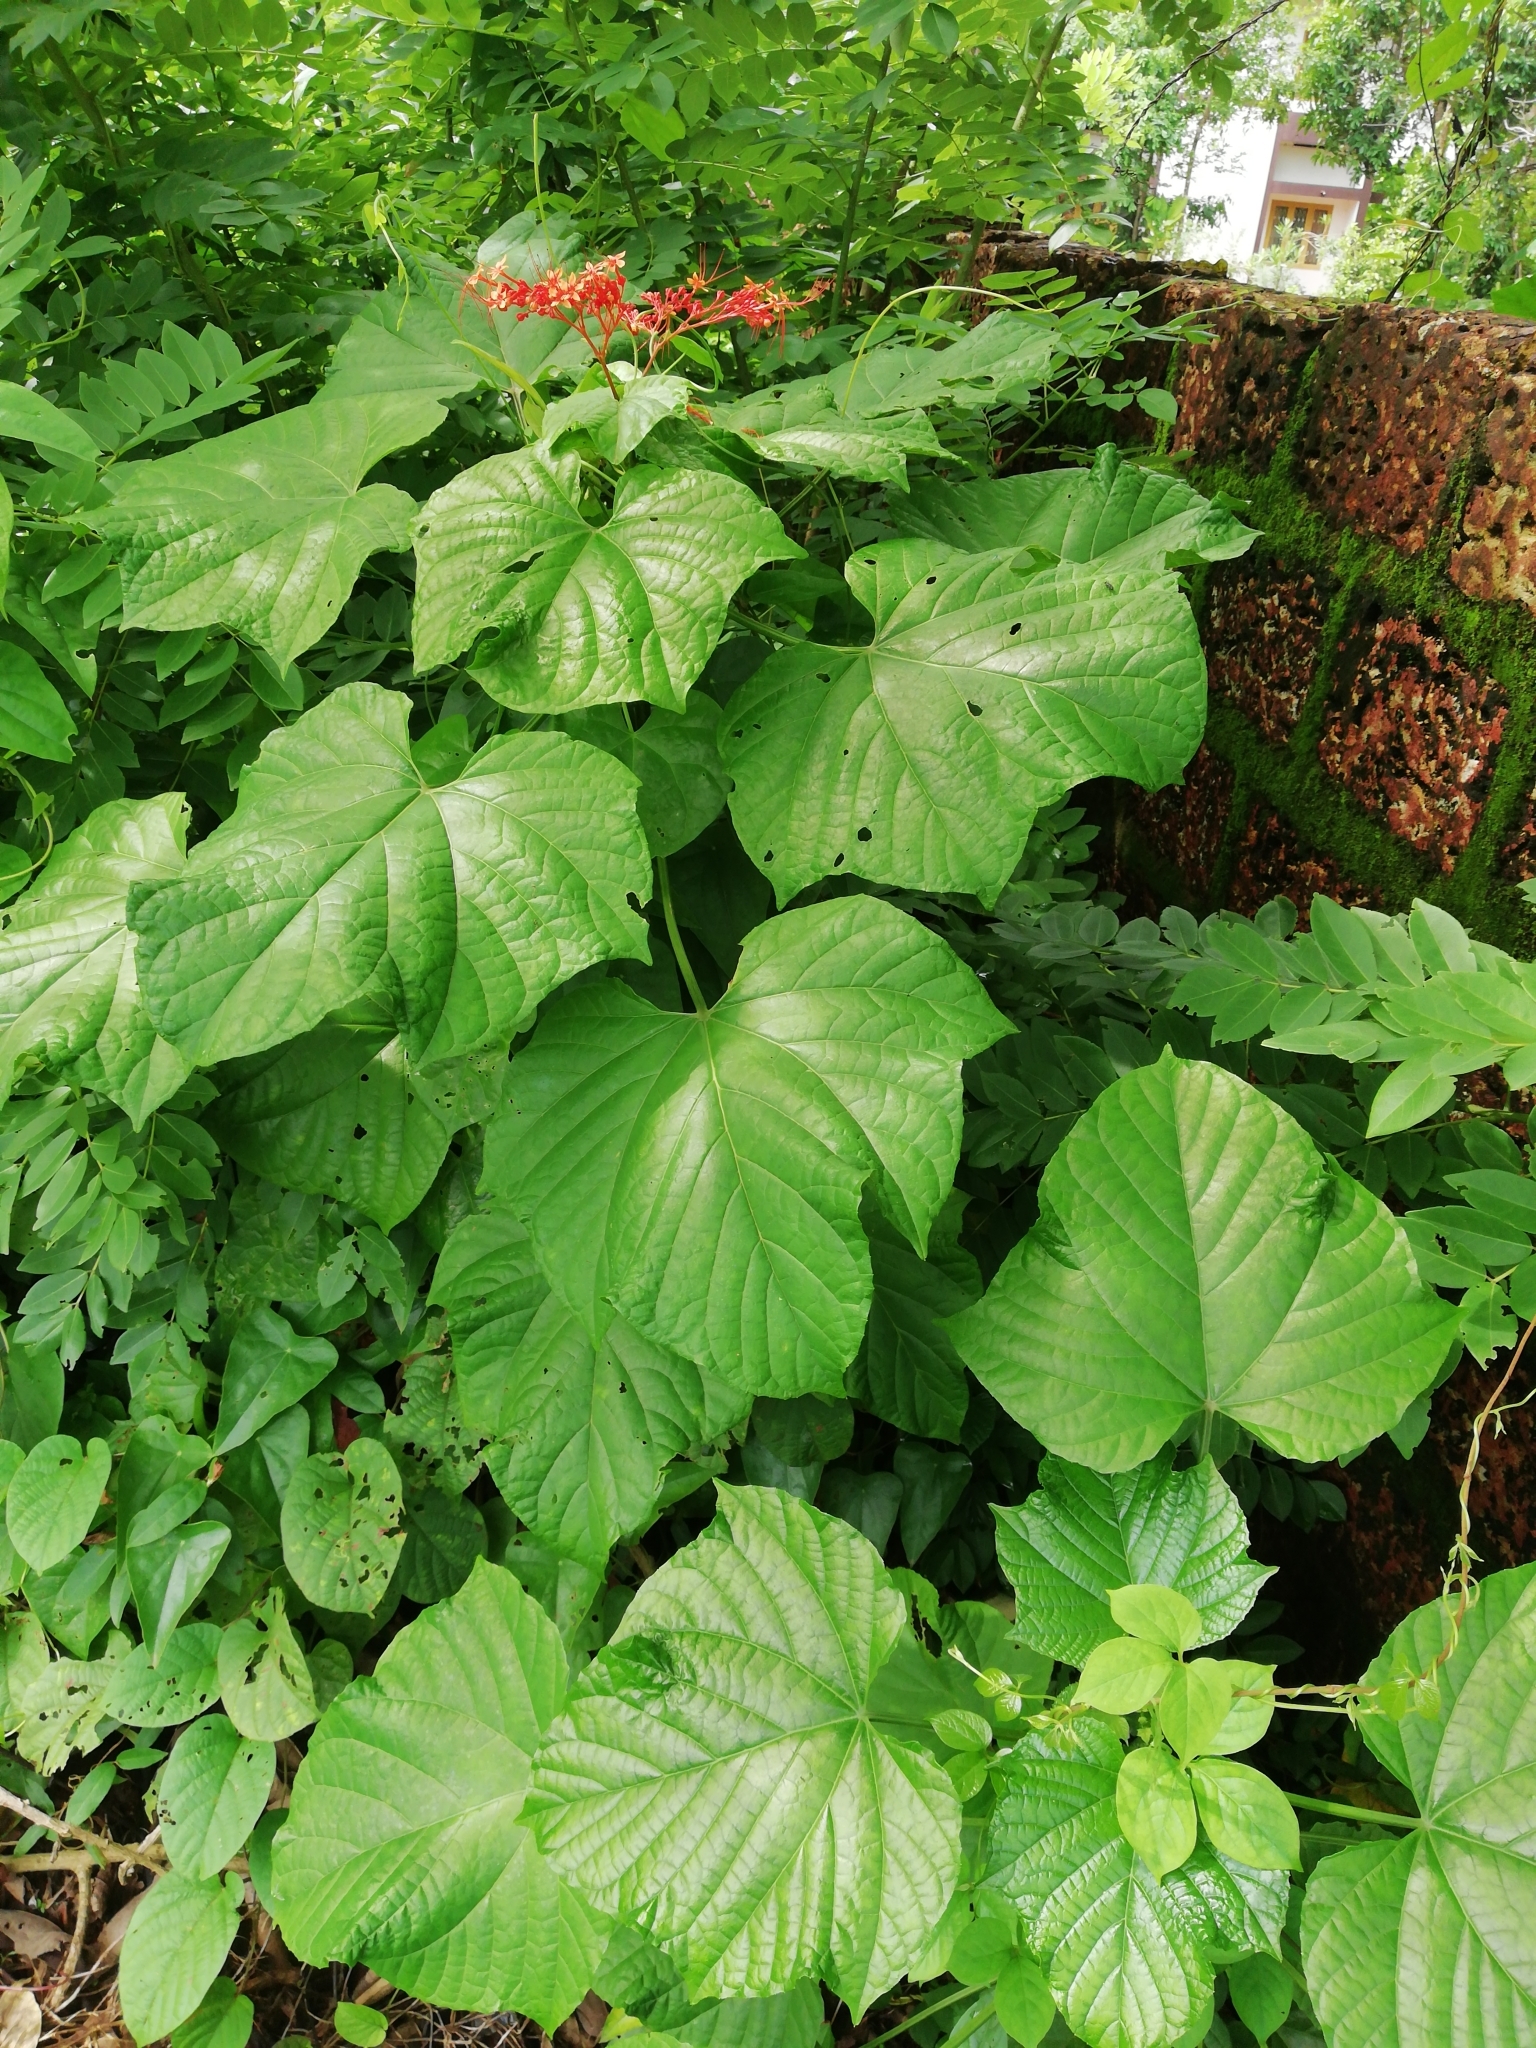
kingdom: Plantae
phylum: Tracheophyta
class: Magnoliopsida
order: Lamiales
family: Lamiaceae
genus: Clerodendrum
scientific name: Clerodendrum paniculatum
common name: Pagoda-flower
